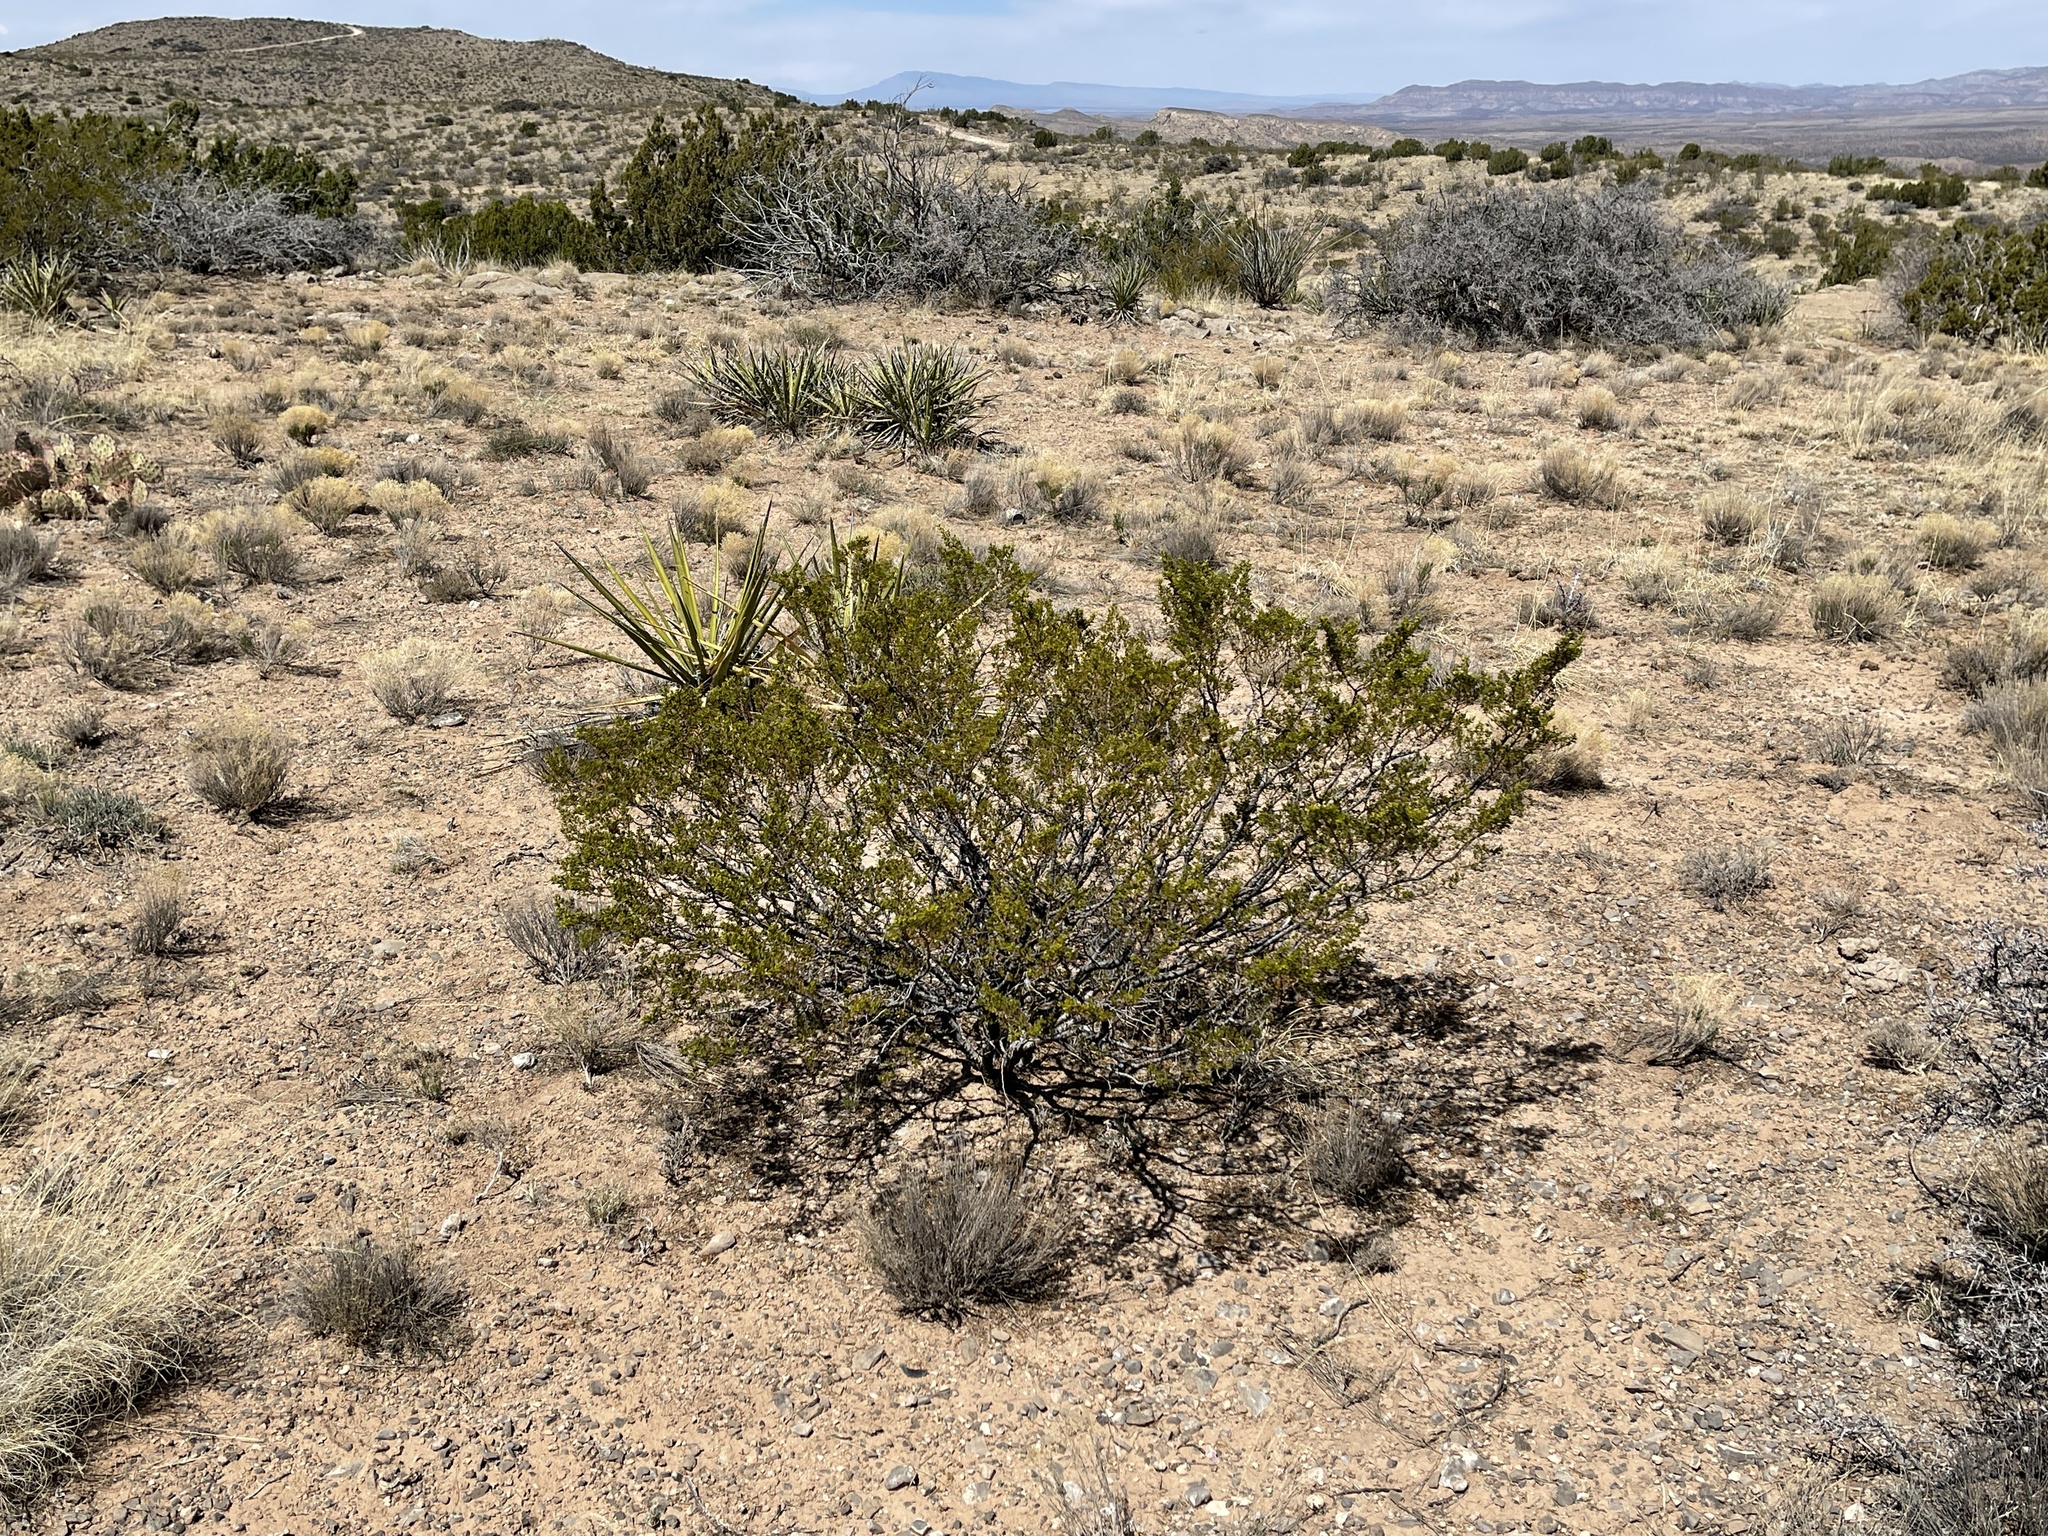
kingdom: Plantae
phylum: Tracheophyta
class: Magnoliopsida
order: Zygophyllales
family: Zygophyllaceae
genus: Larrea
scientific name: Larrea tridentata
